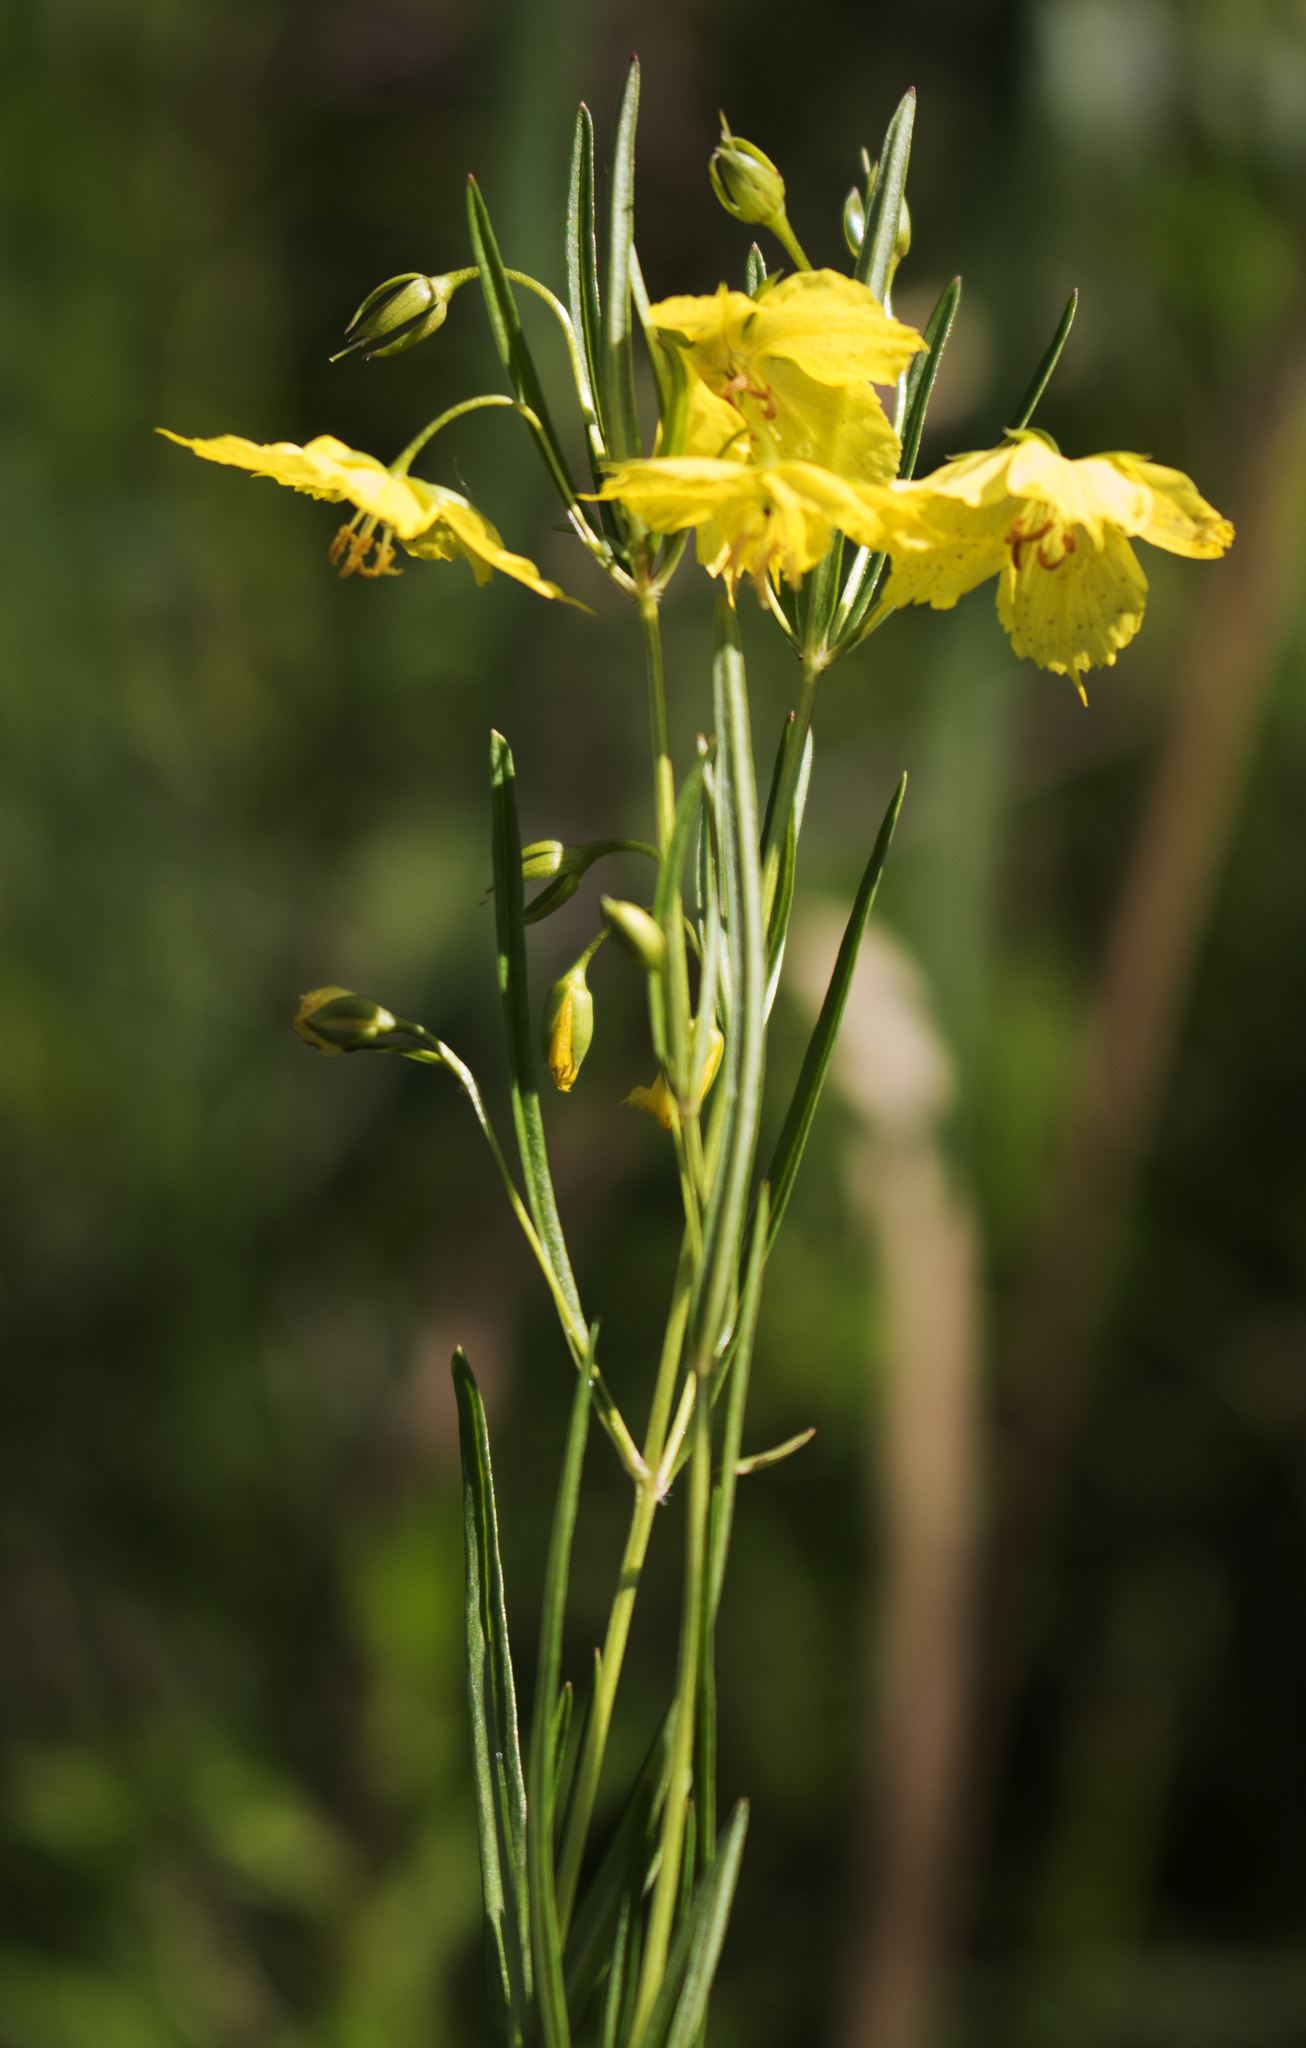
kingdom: Plantae
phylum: Tracheophyta
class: Magnoliopsida
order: Ericales
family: Primulaceae
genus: Lysimachia
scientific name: Lysimachia quadriflora
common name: Four-flowered loosestrife
